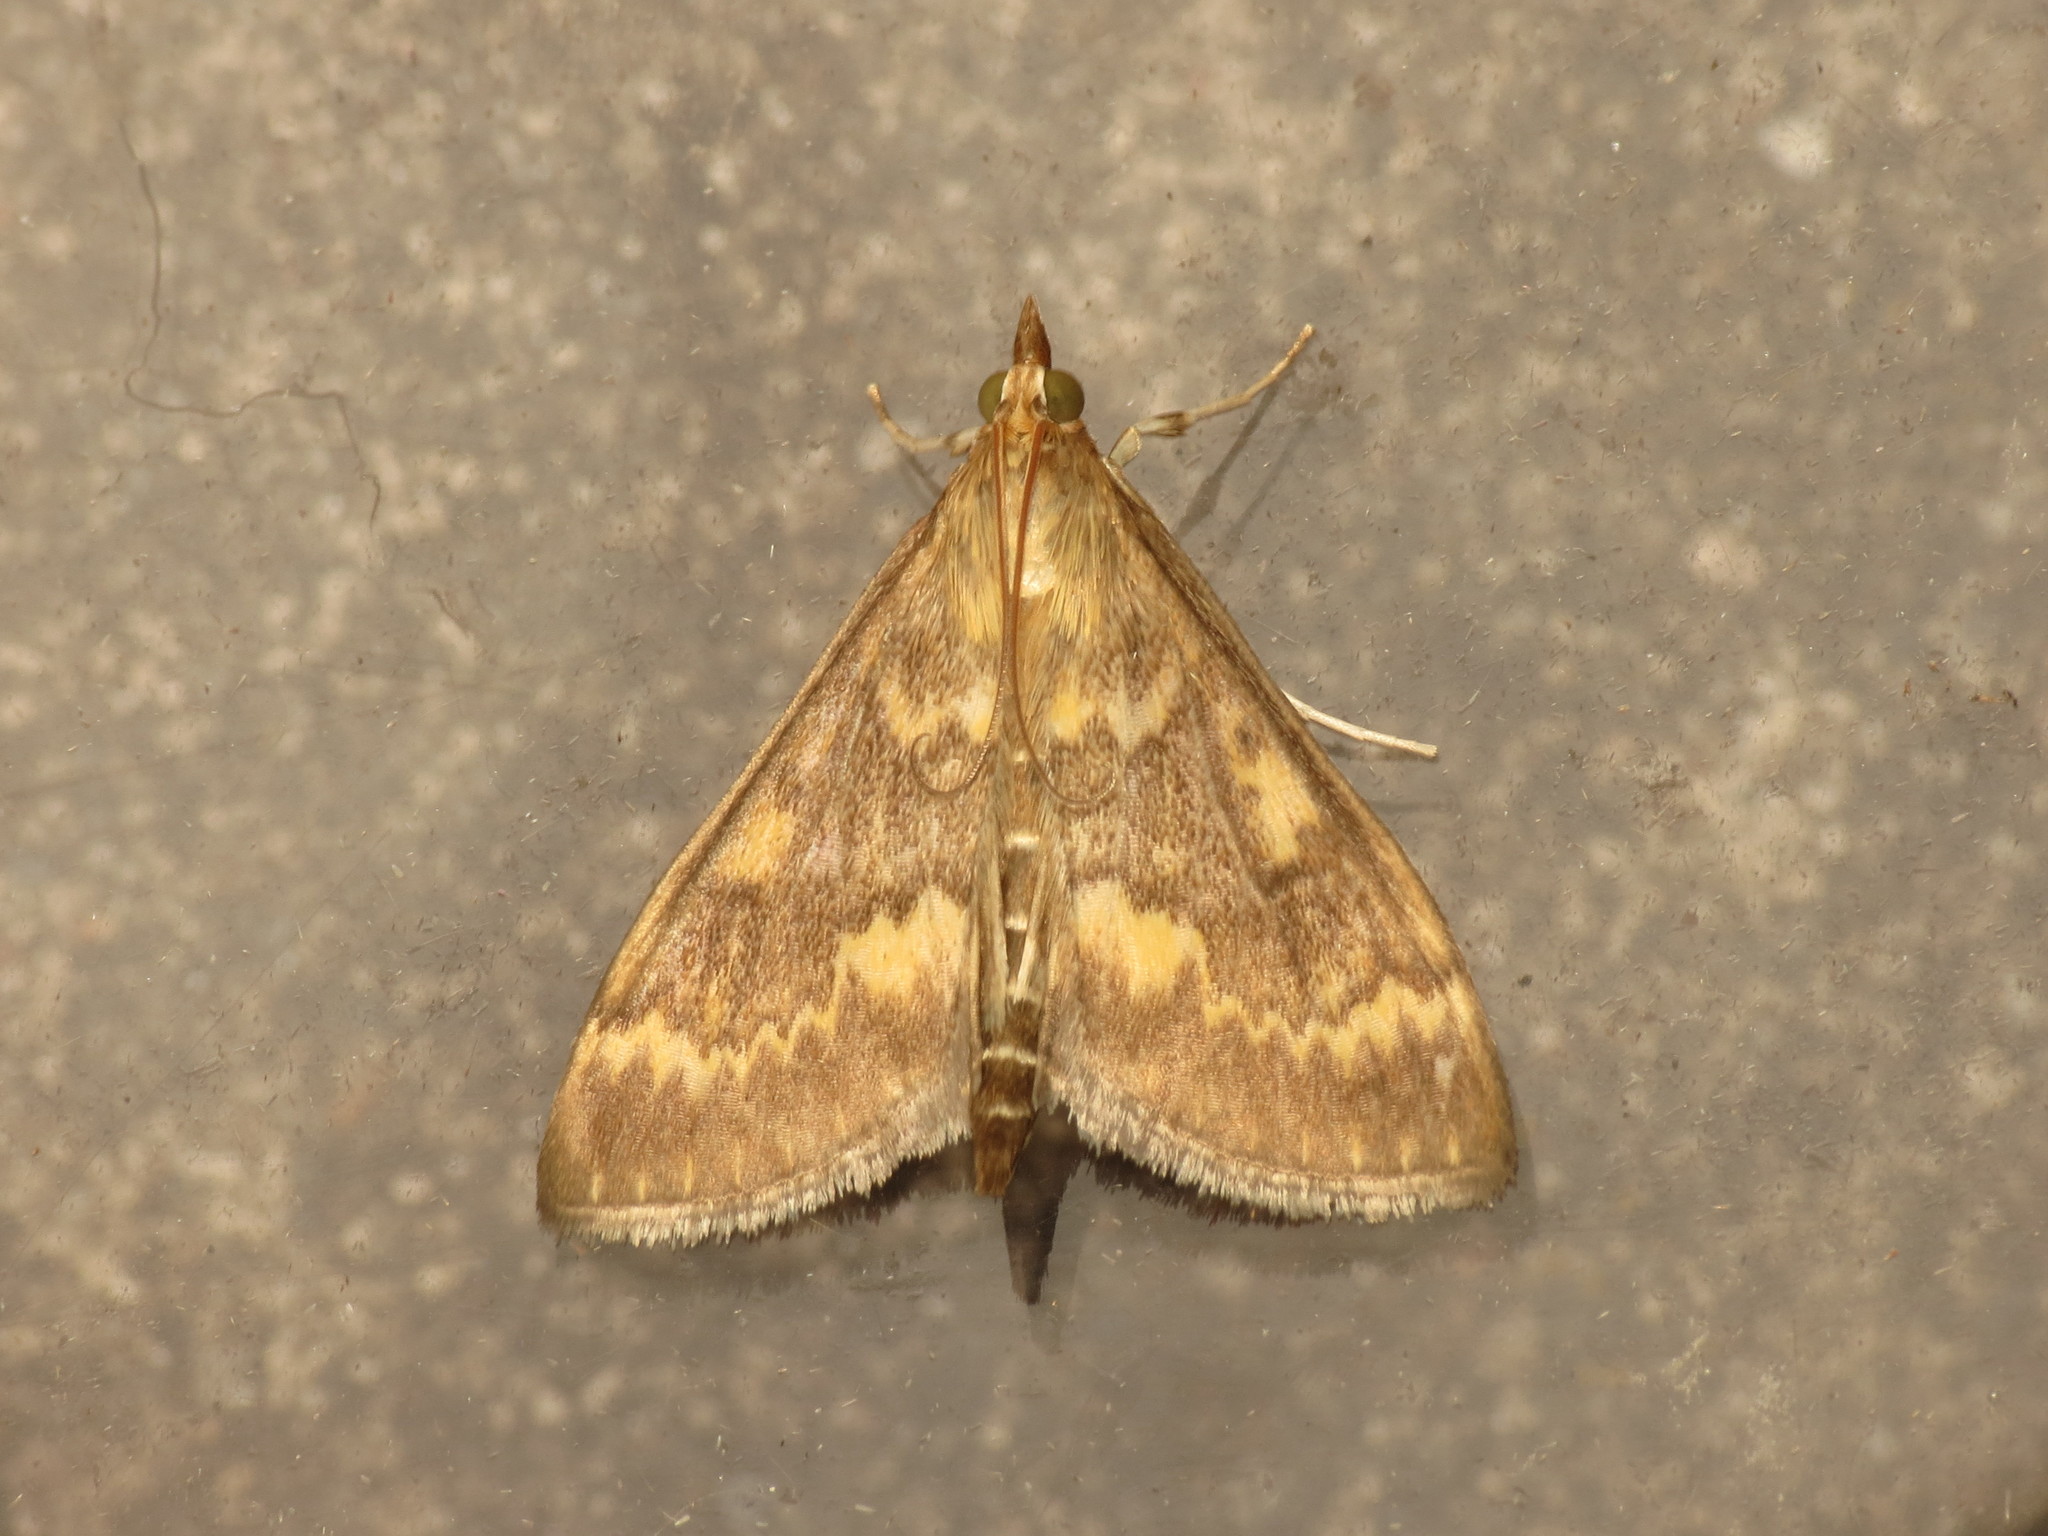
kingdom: Animalia
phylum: Arthropoda
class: Insecta
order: Lepidoptera
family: Crambidae
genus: Ostrinia
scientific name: Ostrinia nubilalis
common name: European corn borer
